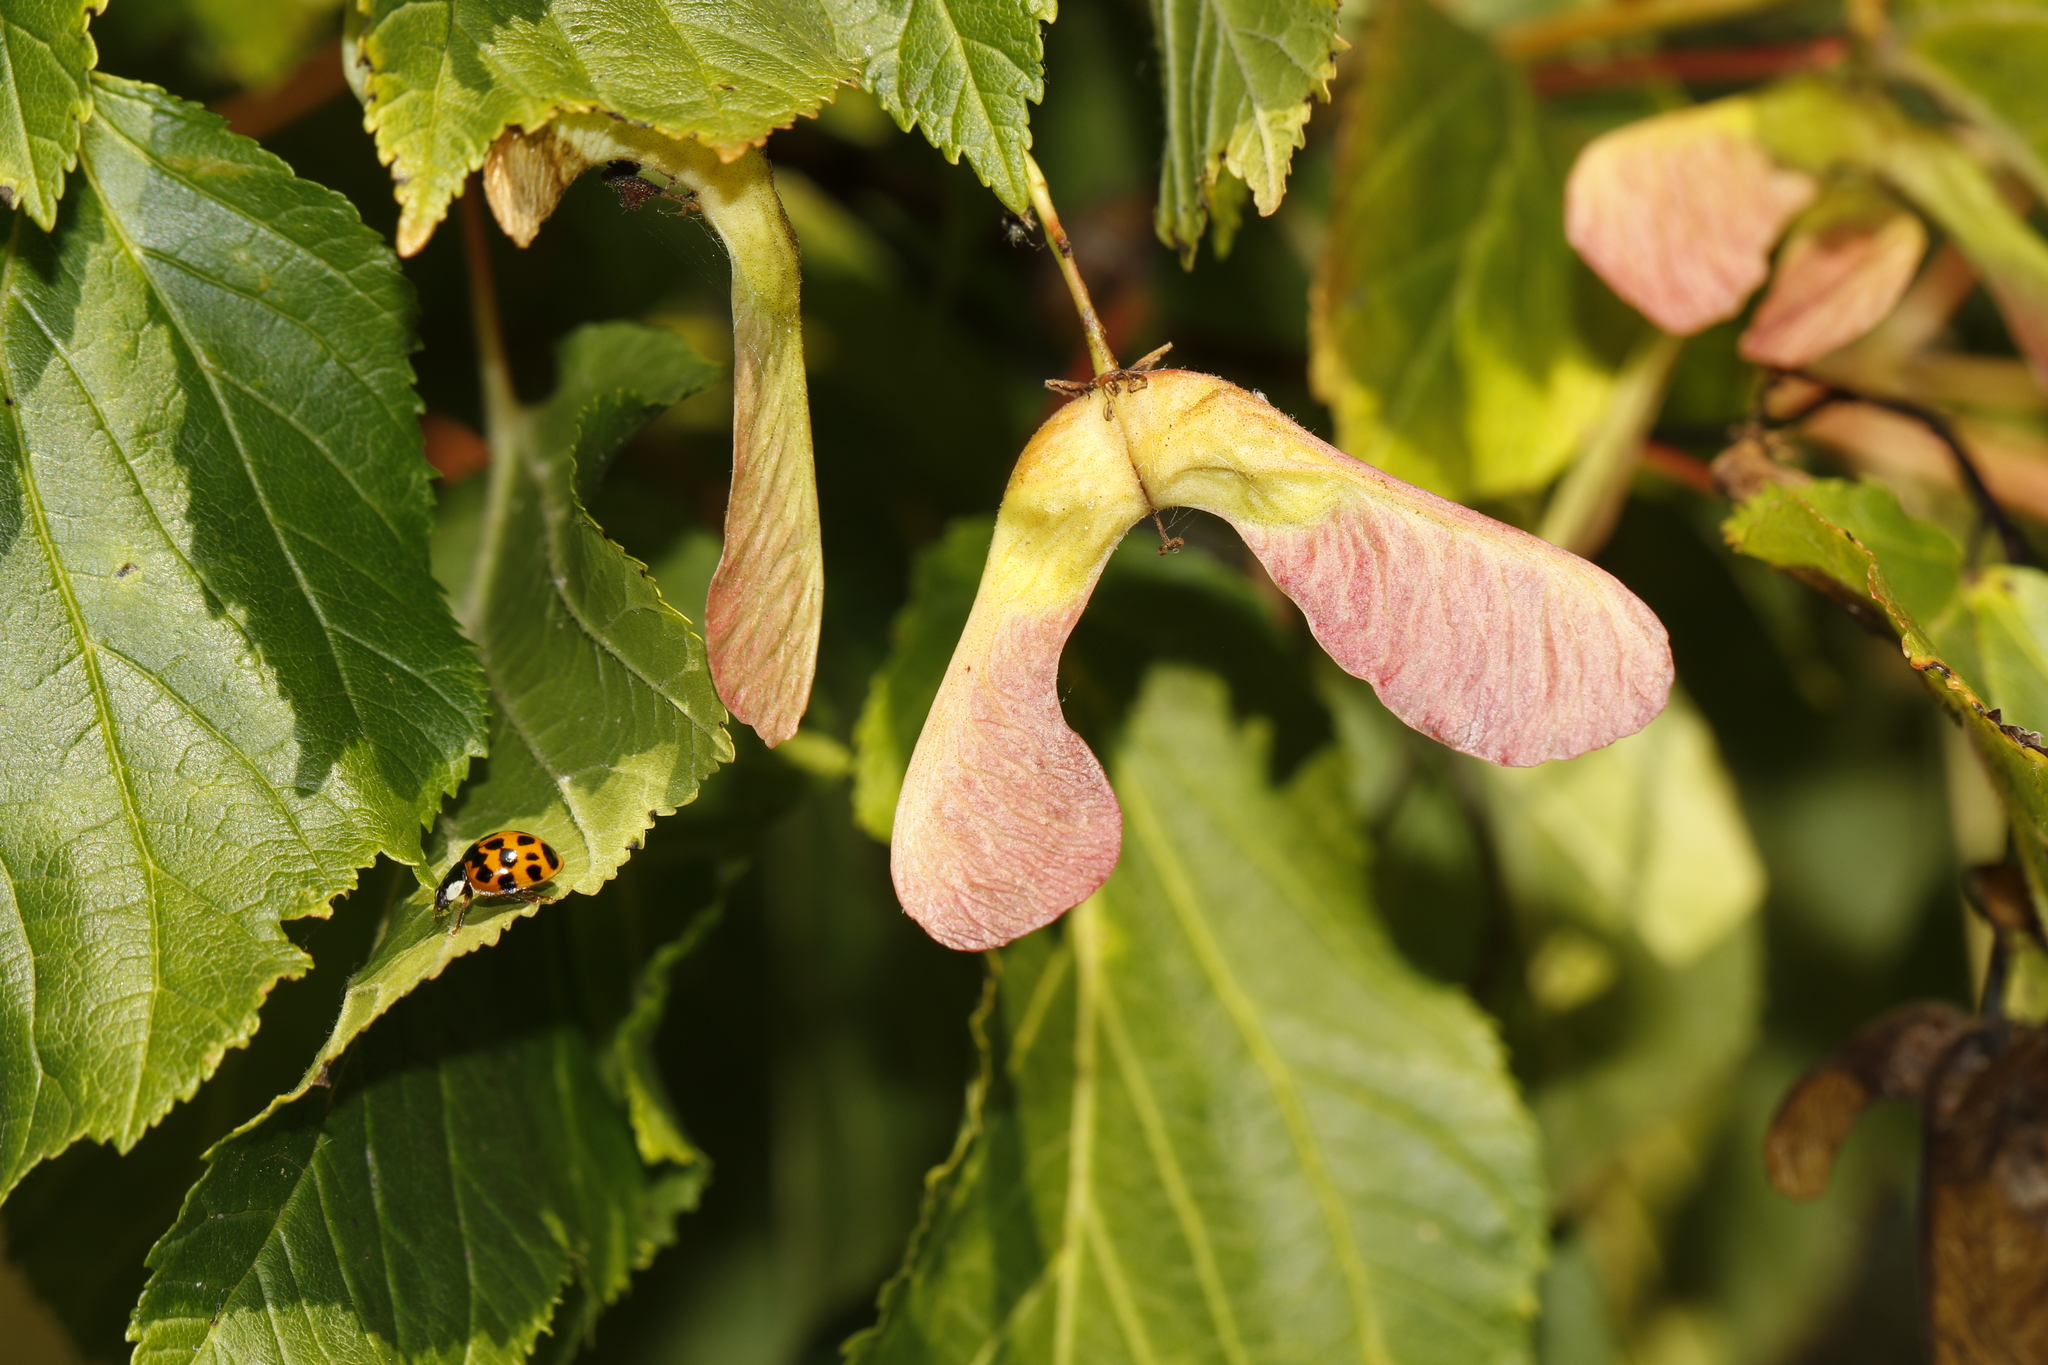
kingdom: Animalia
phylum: Arthropoda
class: Insecta
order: Coleoptera
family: Coccinellidae
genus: Harmonia
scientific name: Harmonia axyridis
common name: Harlequin ladybird
